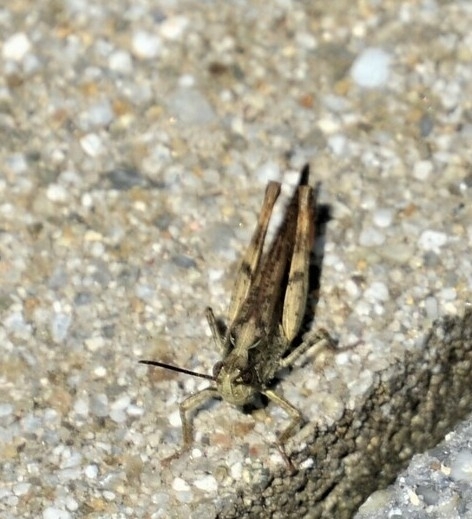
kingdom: Animalia
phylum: Arthropoda
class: Insecta
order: Orthoptera
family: Acrididae
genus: Chorthippus
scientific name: Chorthippus brunneus
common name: Field grasshopper
